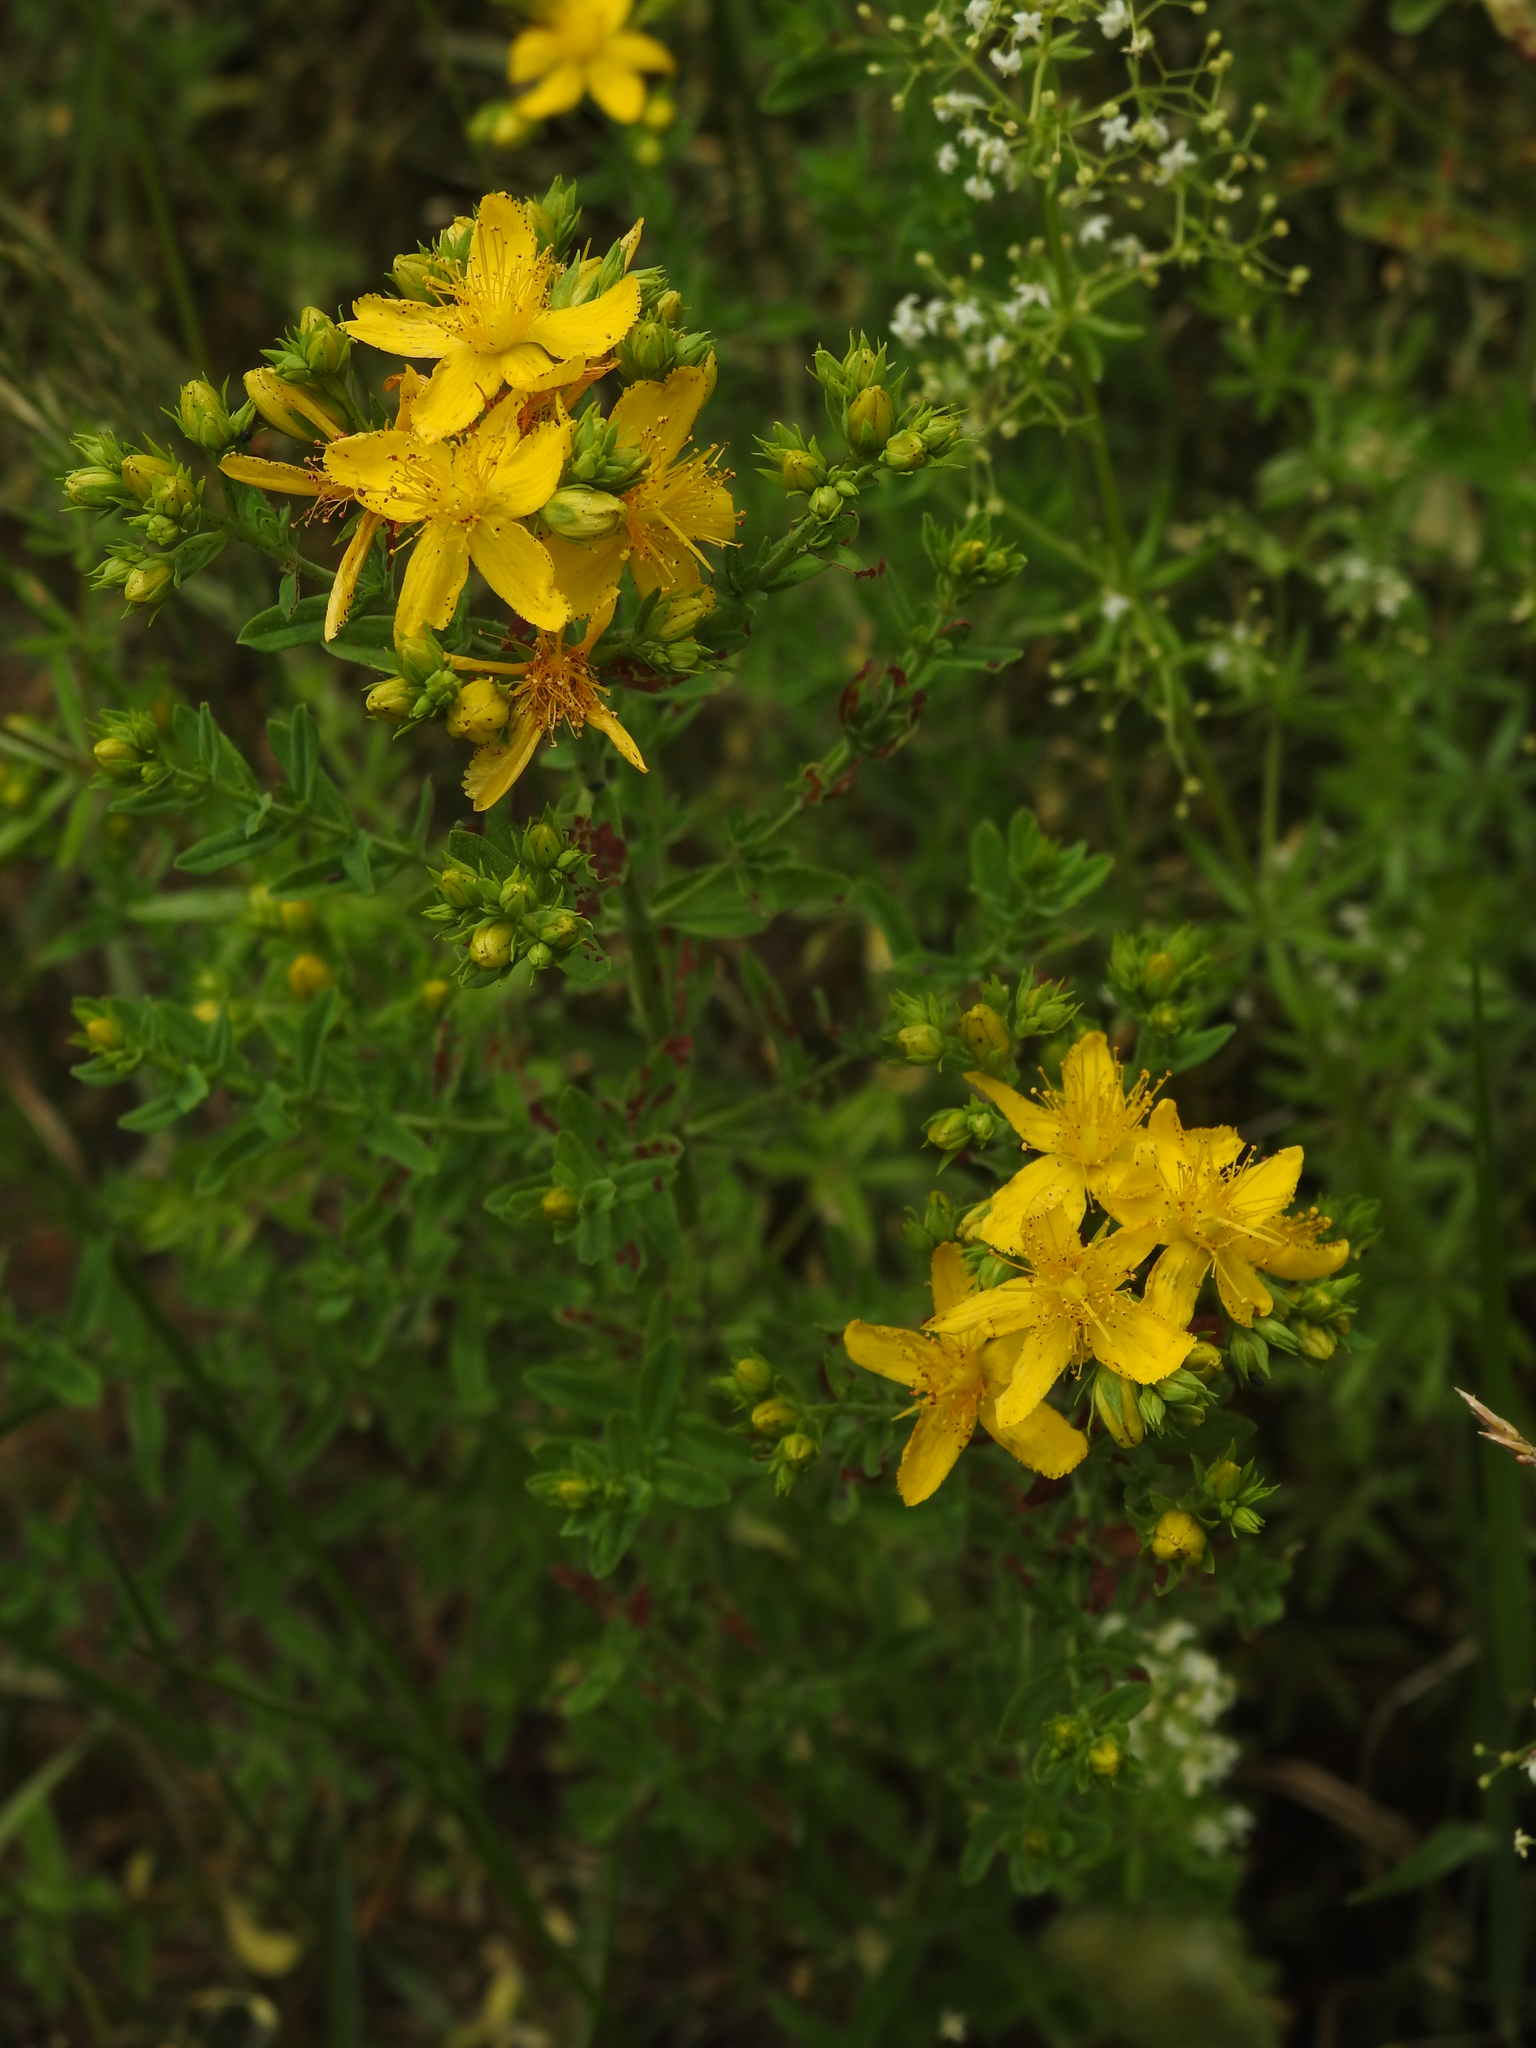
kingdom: Plantae
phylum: Tracheophyta
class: Magnoliopsida
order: Malpighiales
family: Hypericaceae
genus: Hypericum
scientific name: Hypericum perforatum
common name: Common st. johnswort
